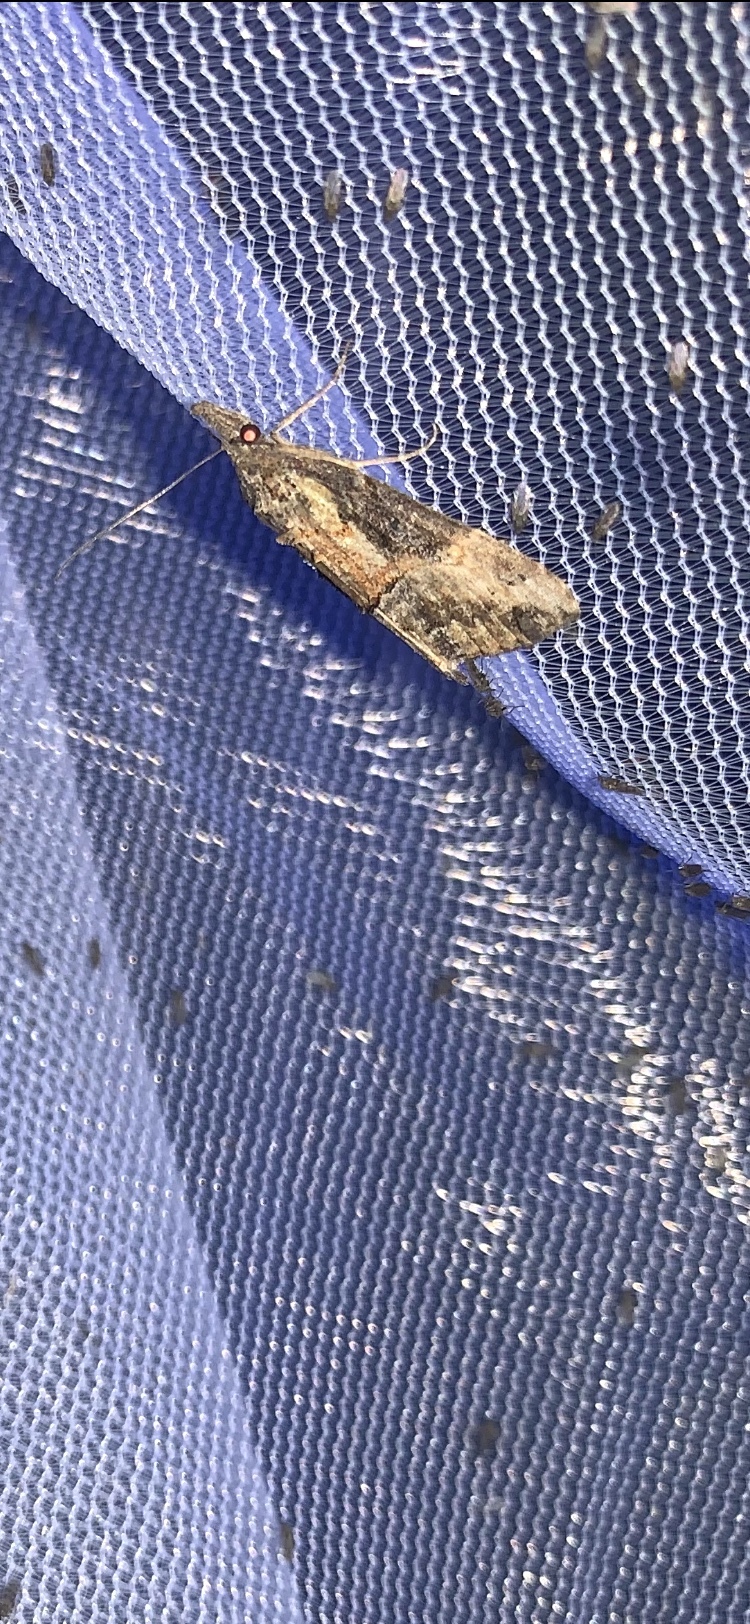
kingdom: Animalia
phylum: Arthropoda
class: Insecta
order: Lepidoptera
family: Erebidae
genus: Hypena
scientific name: Hypena scabra
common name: Green cloverworm
